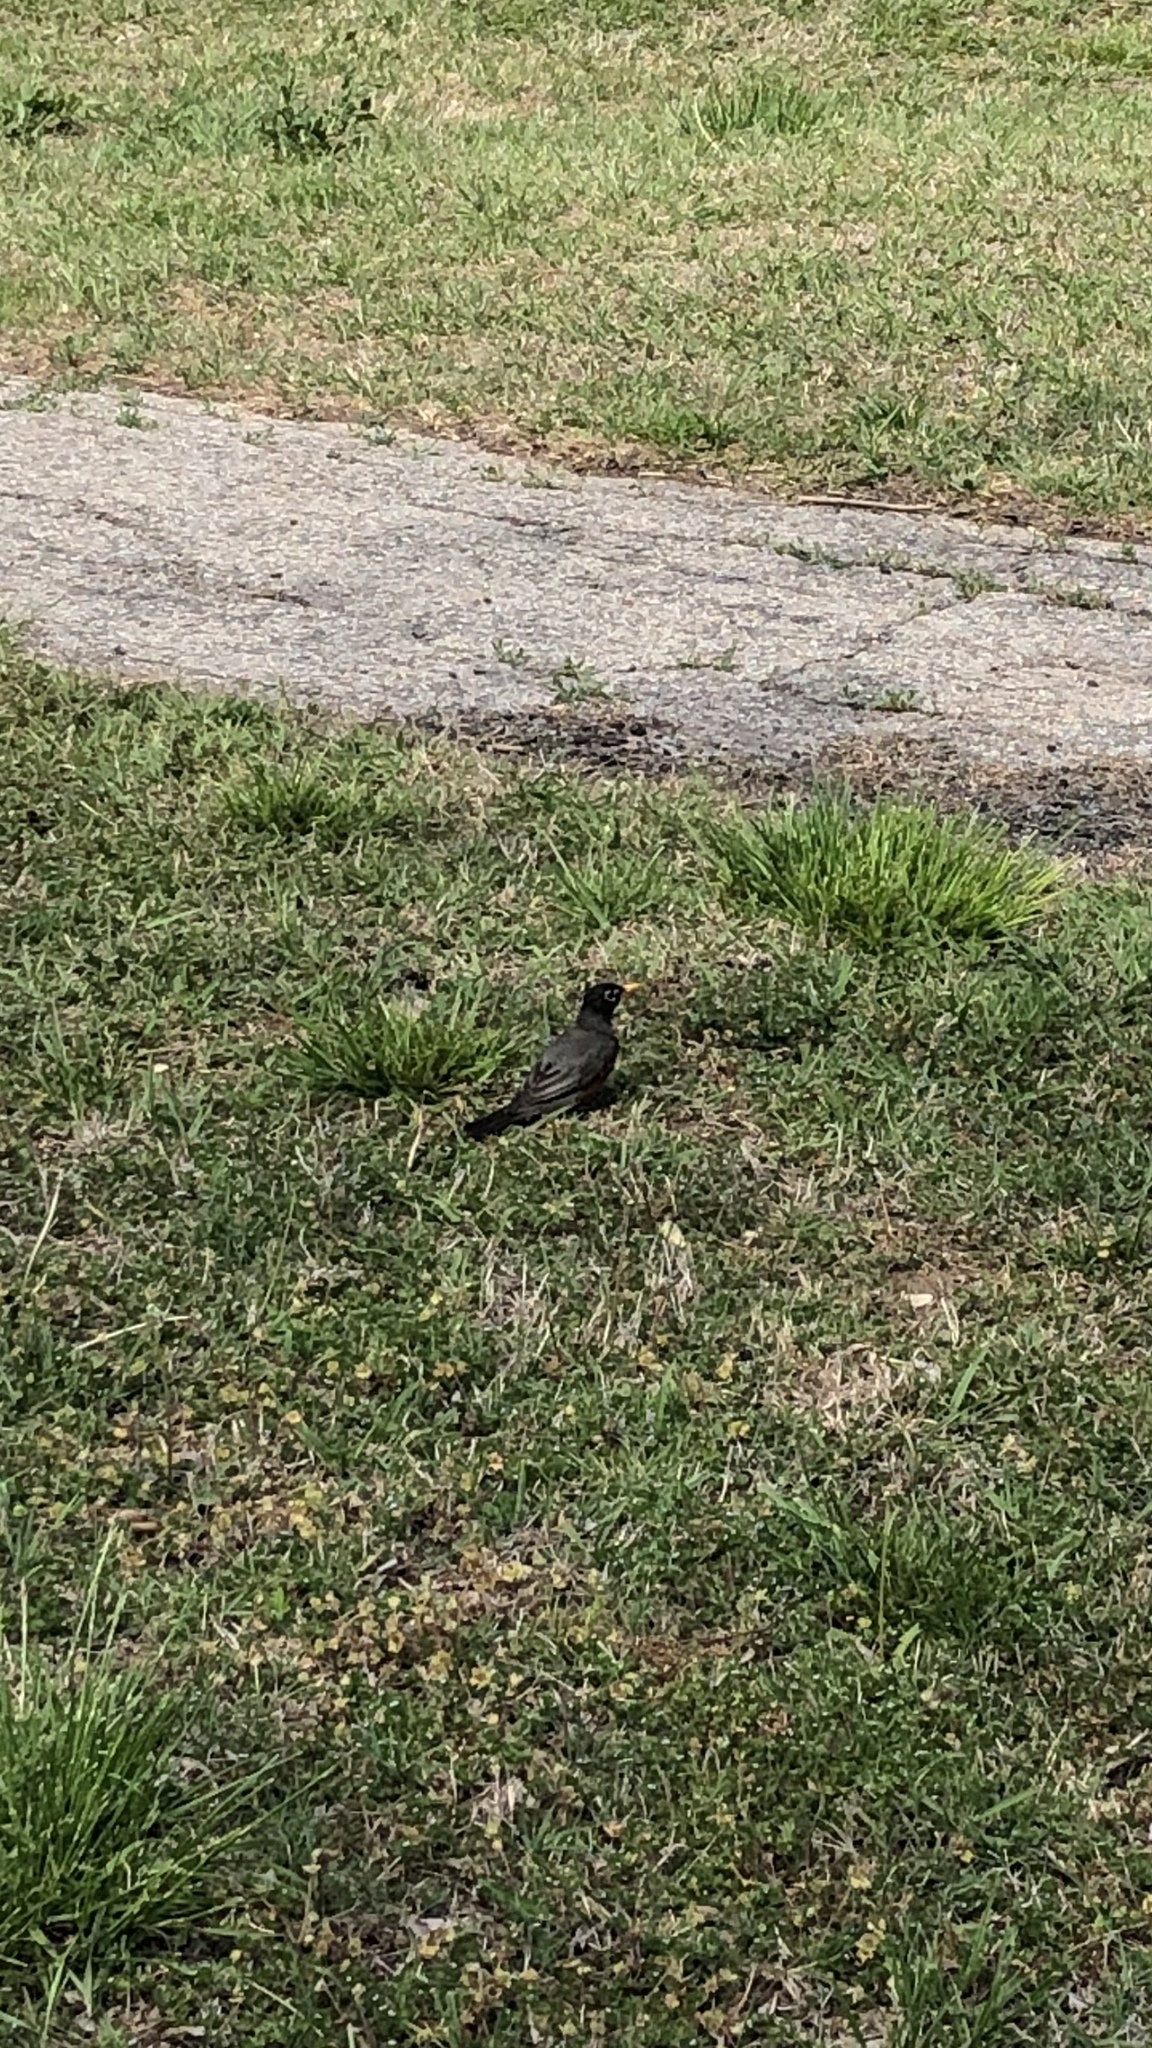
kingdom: Animalia
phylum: Chordata
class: Aves
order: Passeriformes
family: Turdidae
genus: Turdus
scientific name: Turdus migratorius
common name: American robin
